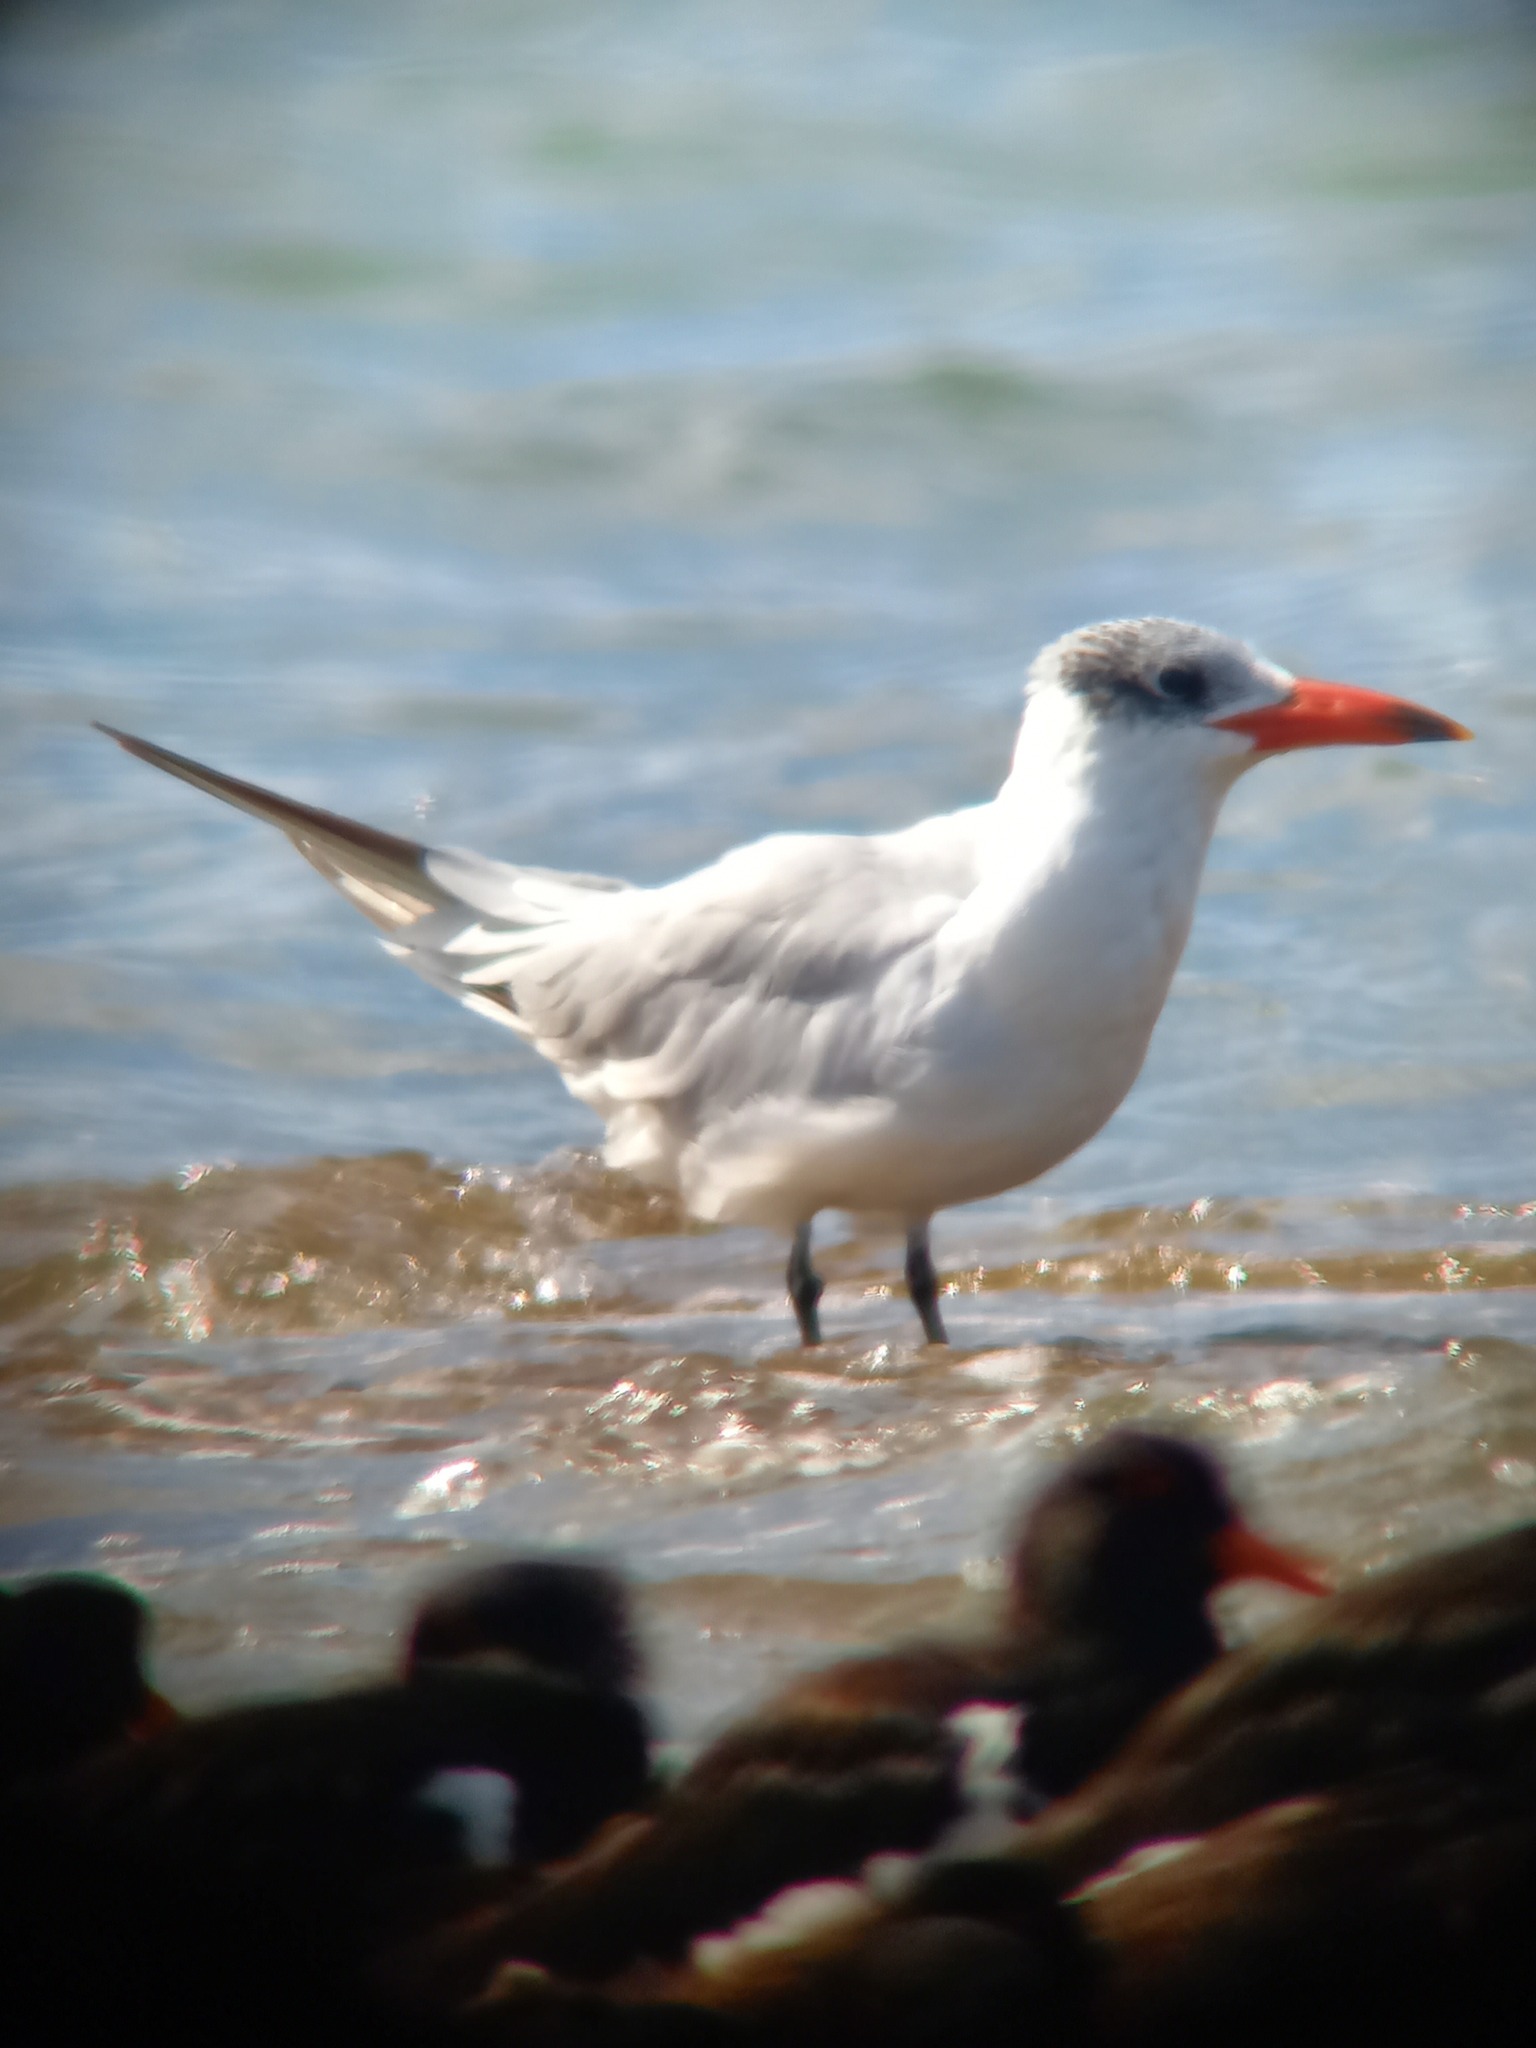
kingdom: Animalia
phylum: Chordata
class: Aves
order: Charadriiformes
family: Laridae
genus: Hydroprogne
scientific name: Hydroprogne caspia
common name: Caspian tern
